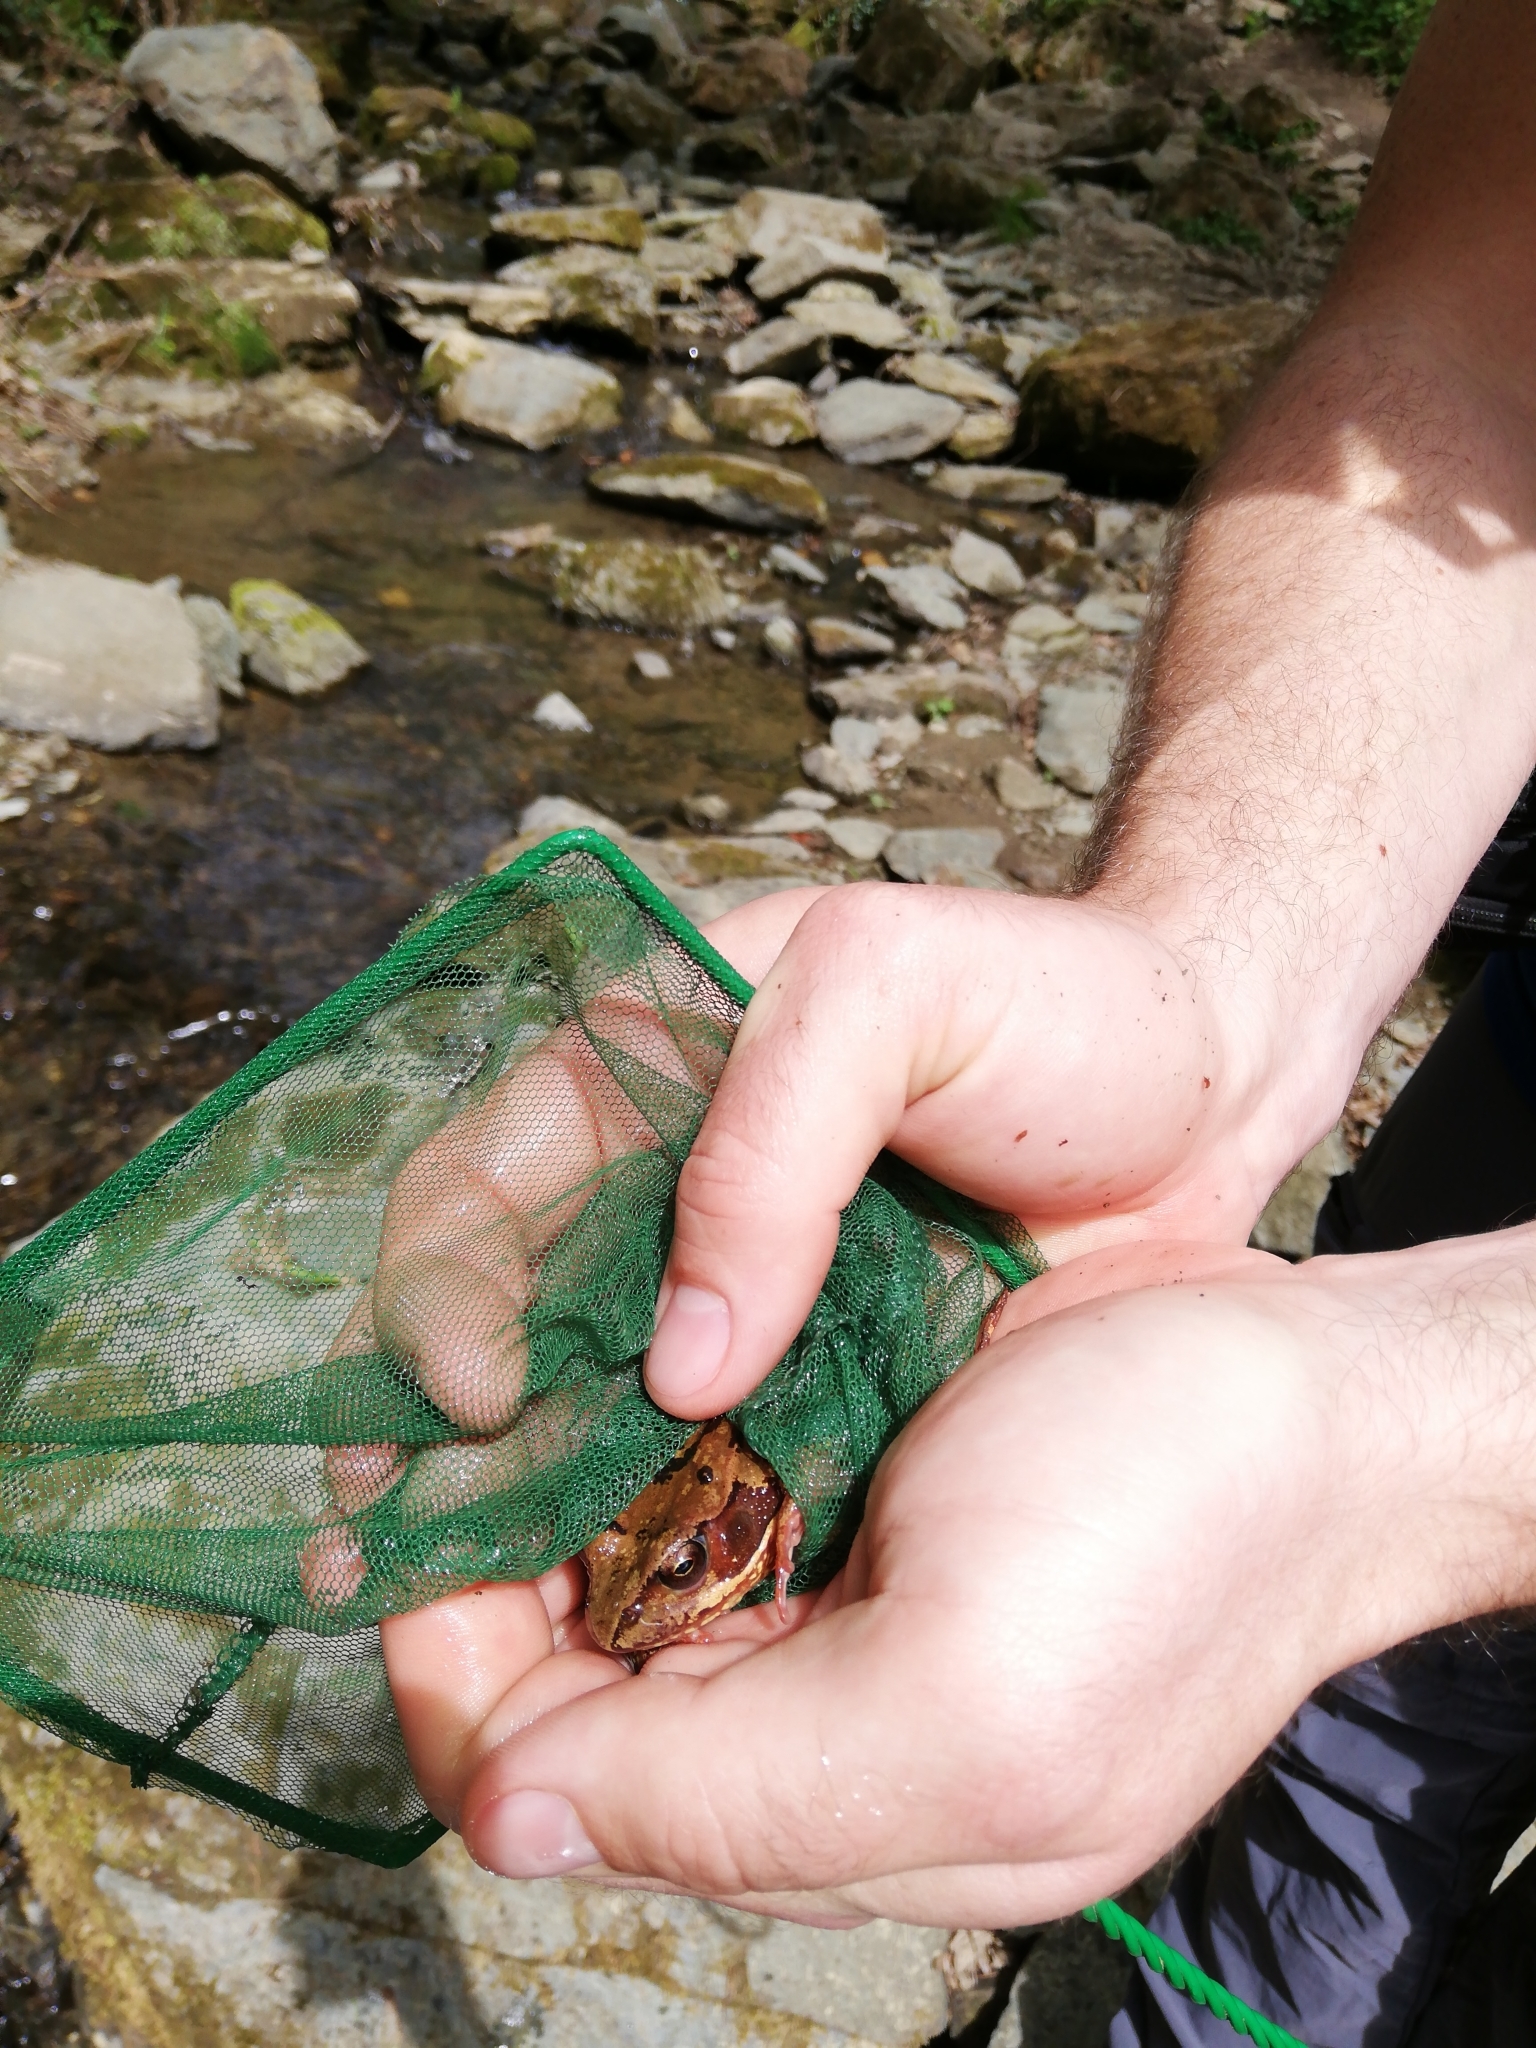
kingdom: Animalia
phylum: Chordata
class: Amphibia
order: Anura
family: Ranidae
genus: Rana
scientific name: Rana temporaria
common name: Common frog
